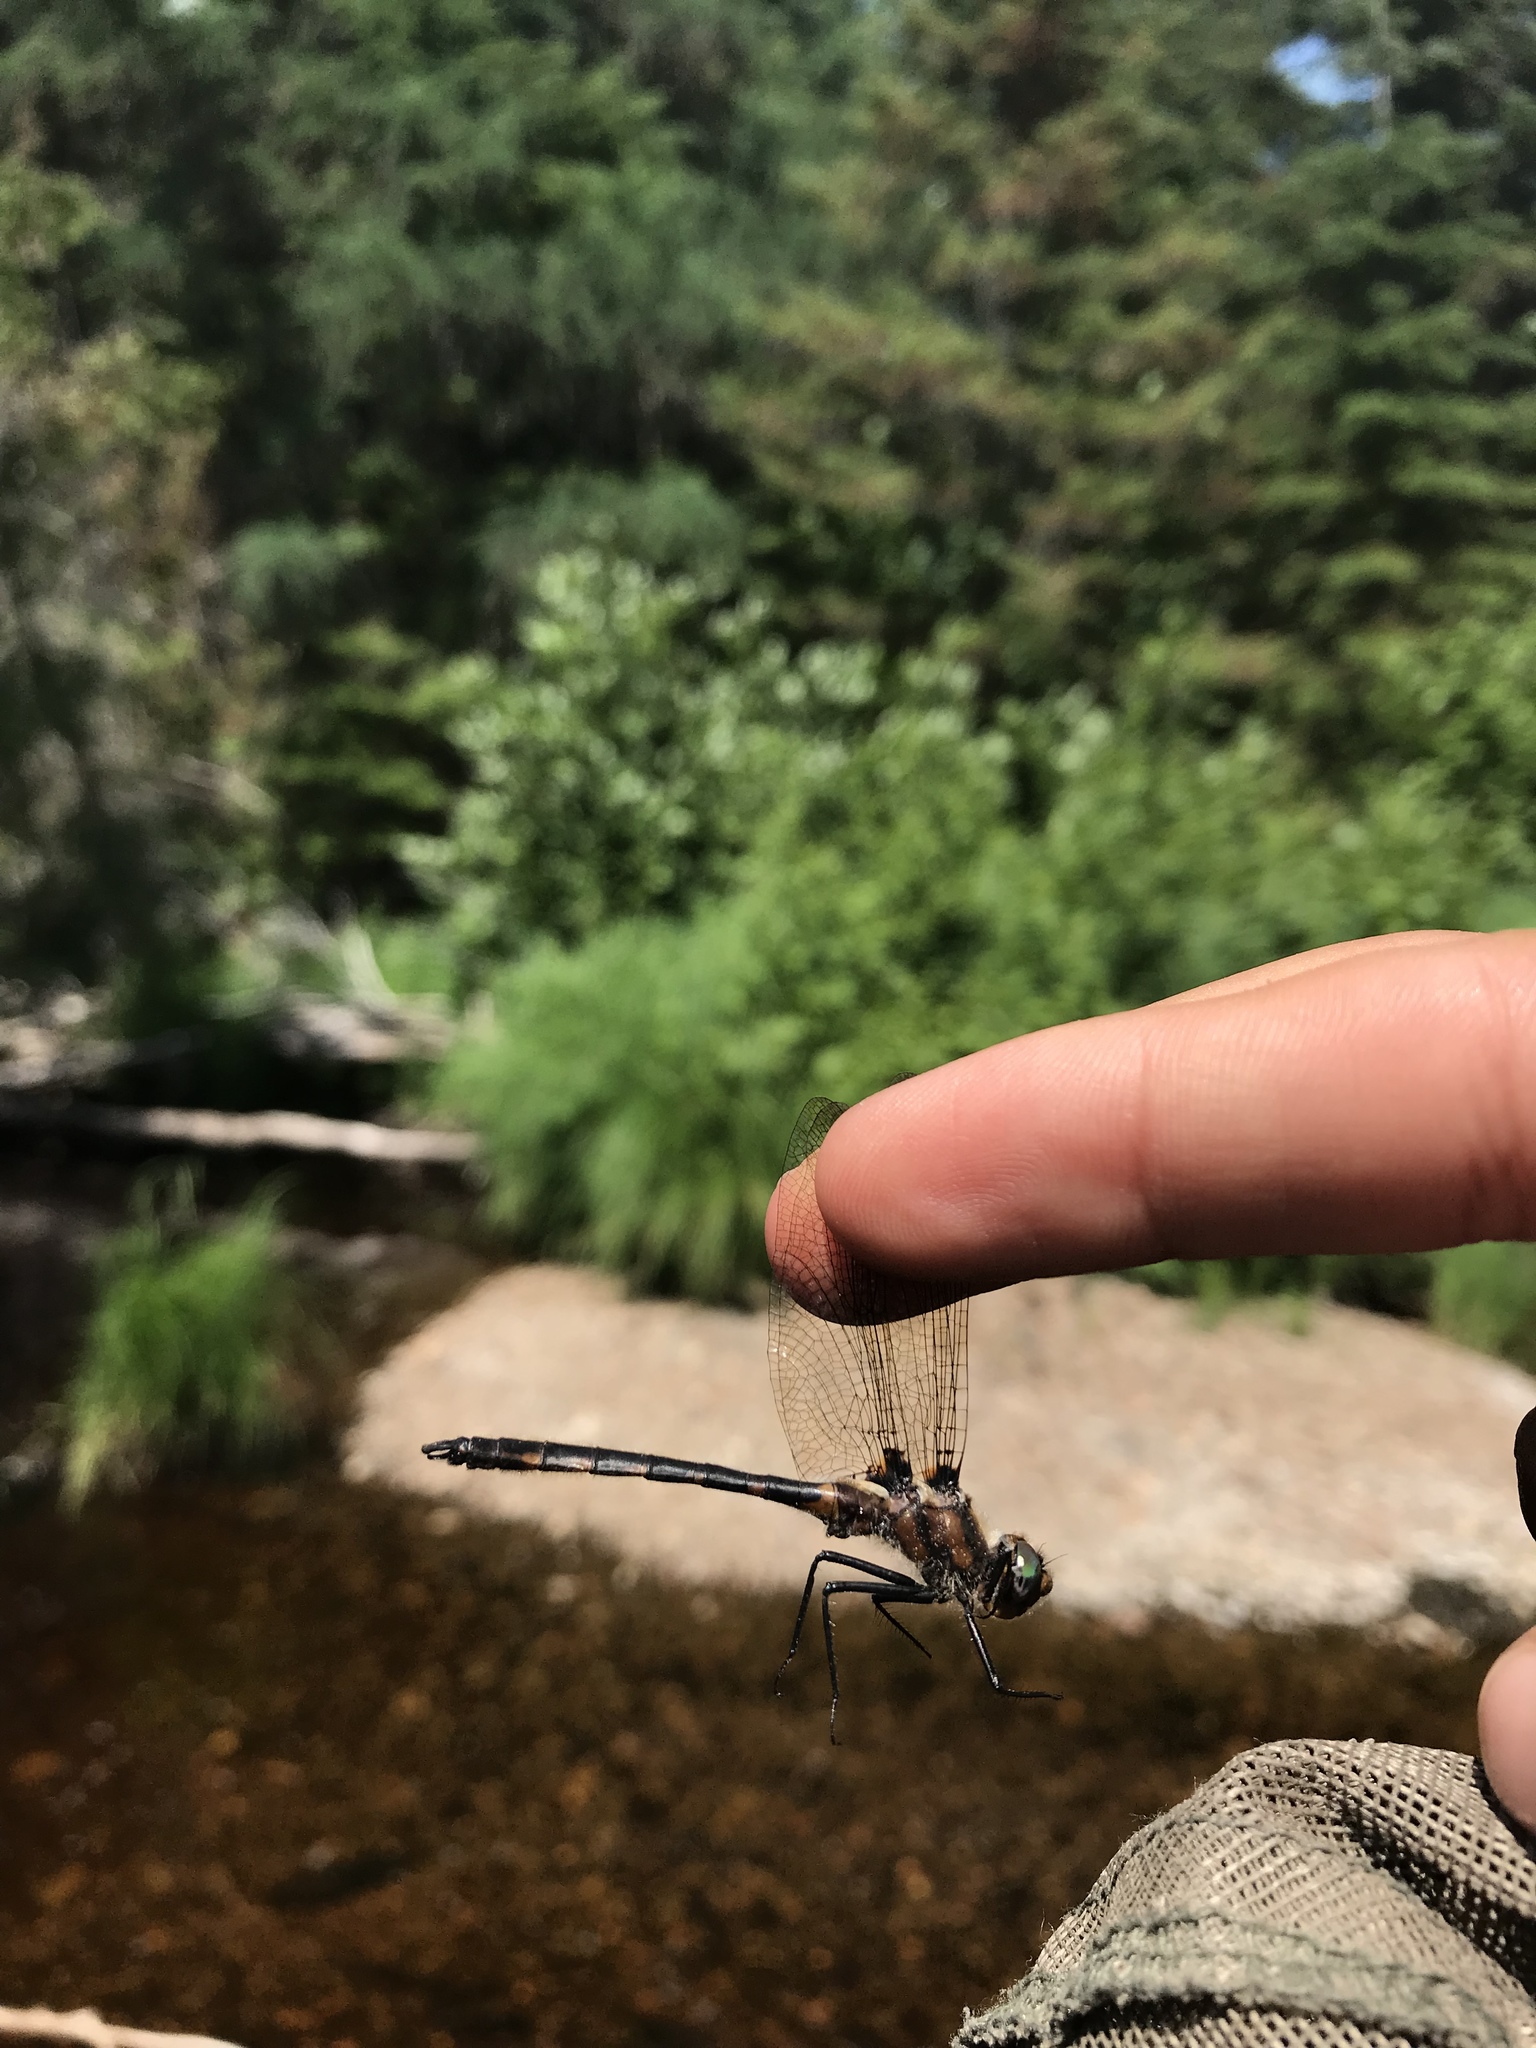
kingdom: Animalia
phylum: Arthropoda
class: Insecta
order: Odonata
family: Corduliidae
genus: Helocordulia
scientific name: Helocordulia uhleri
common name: Uhler's sundragon
